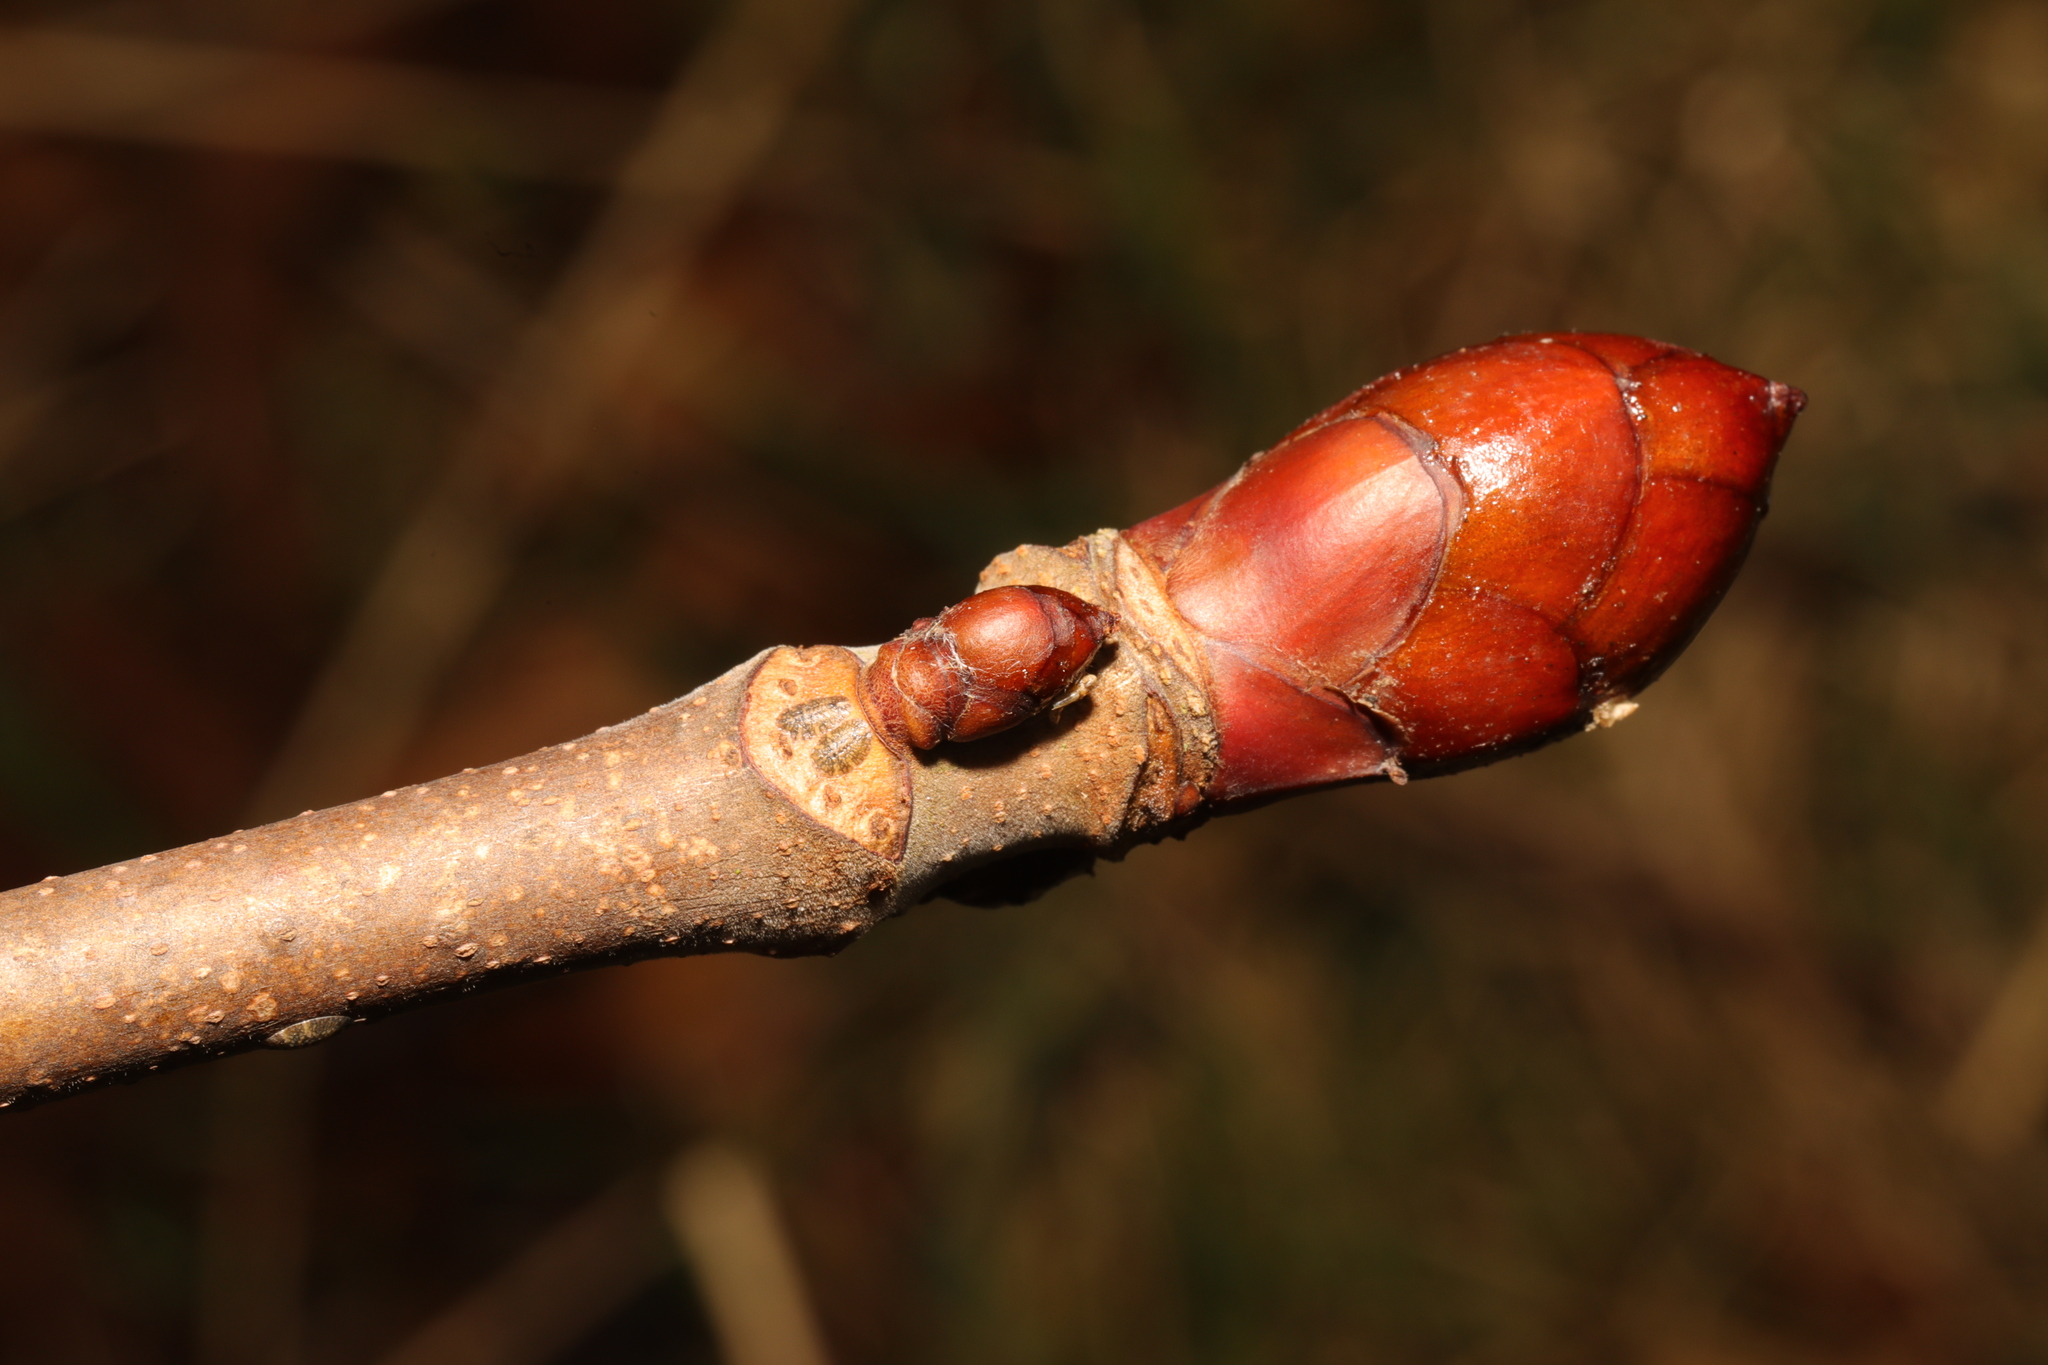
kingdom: Plantae
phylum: Tracheophyta
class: Magnoliopsida
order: Sapindales
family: Sapindaceae
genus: Aesculus
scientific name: Aesculus hippocastanum
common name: Horse-chestnut
